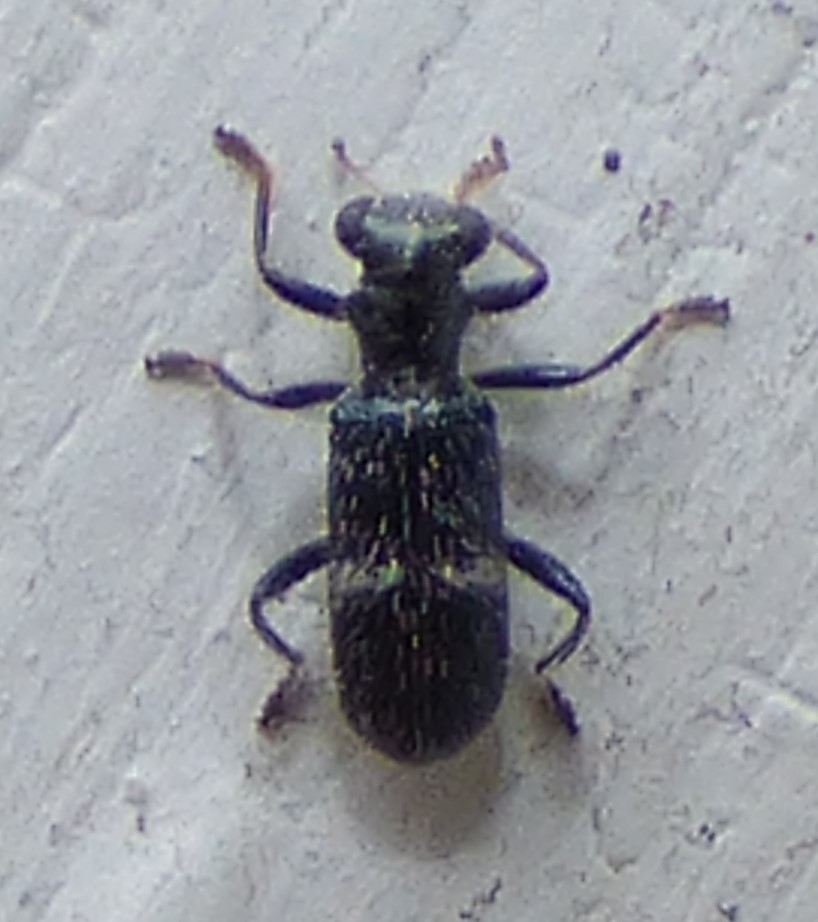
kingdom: Animalia
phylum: Arthropoda
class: Insecta
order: Coleoptera
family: Cleridae
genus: Phyllobaenus
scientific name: Phyllobaenus unifasciatus
